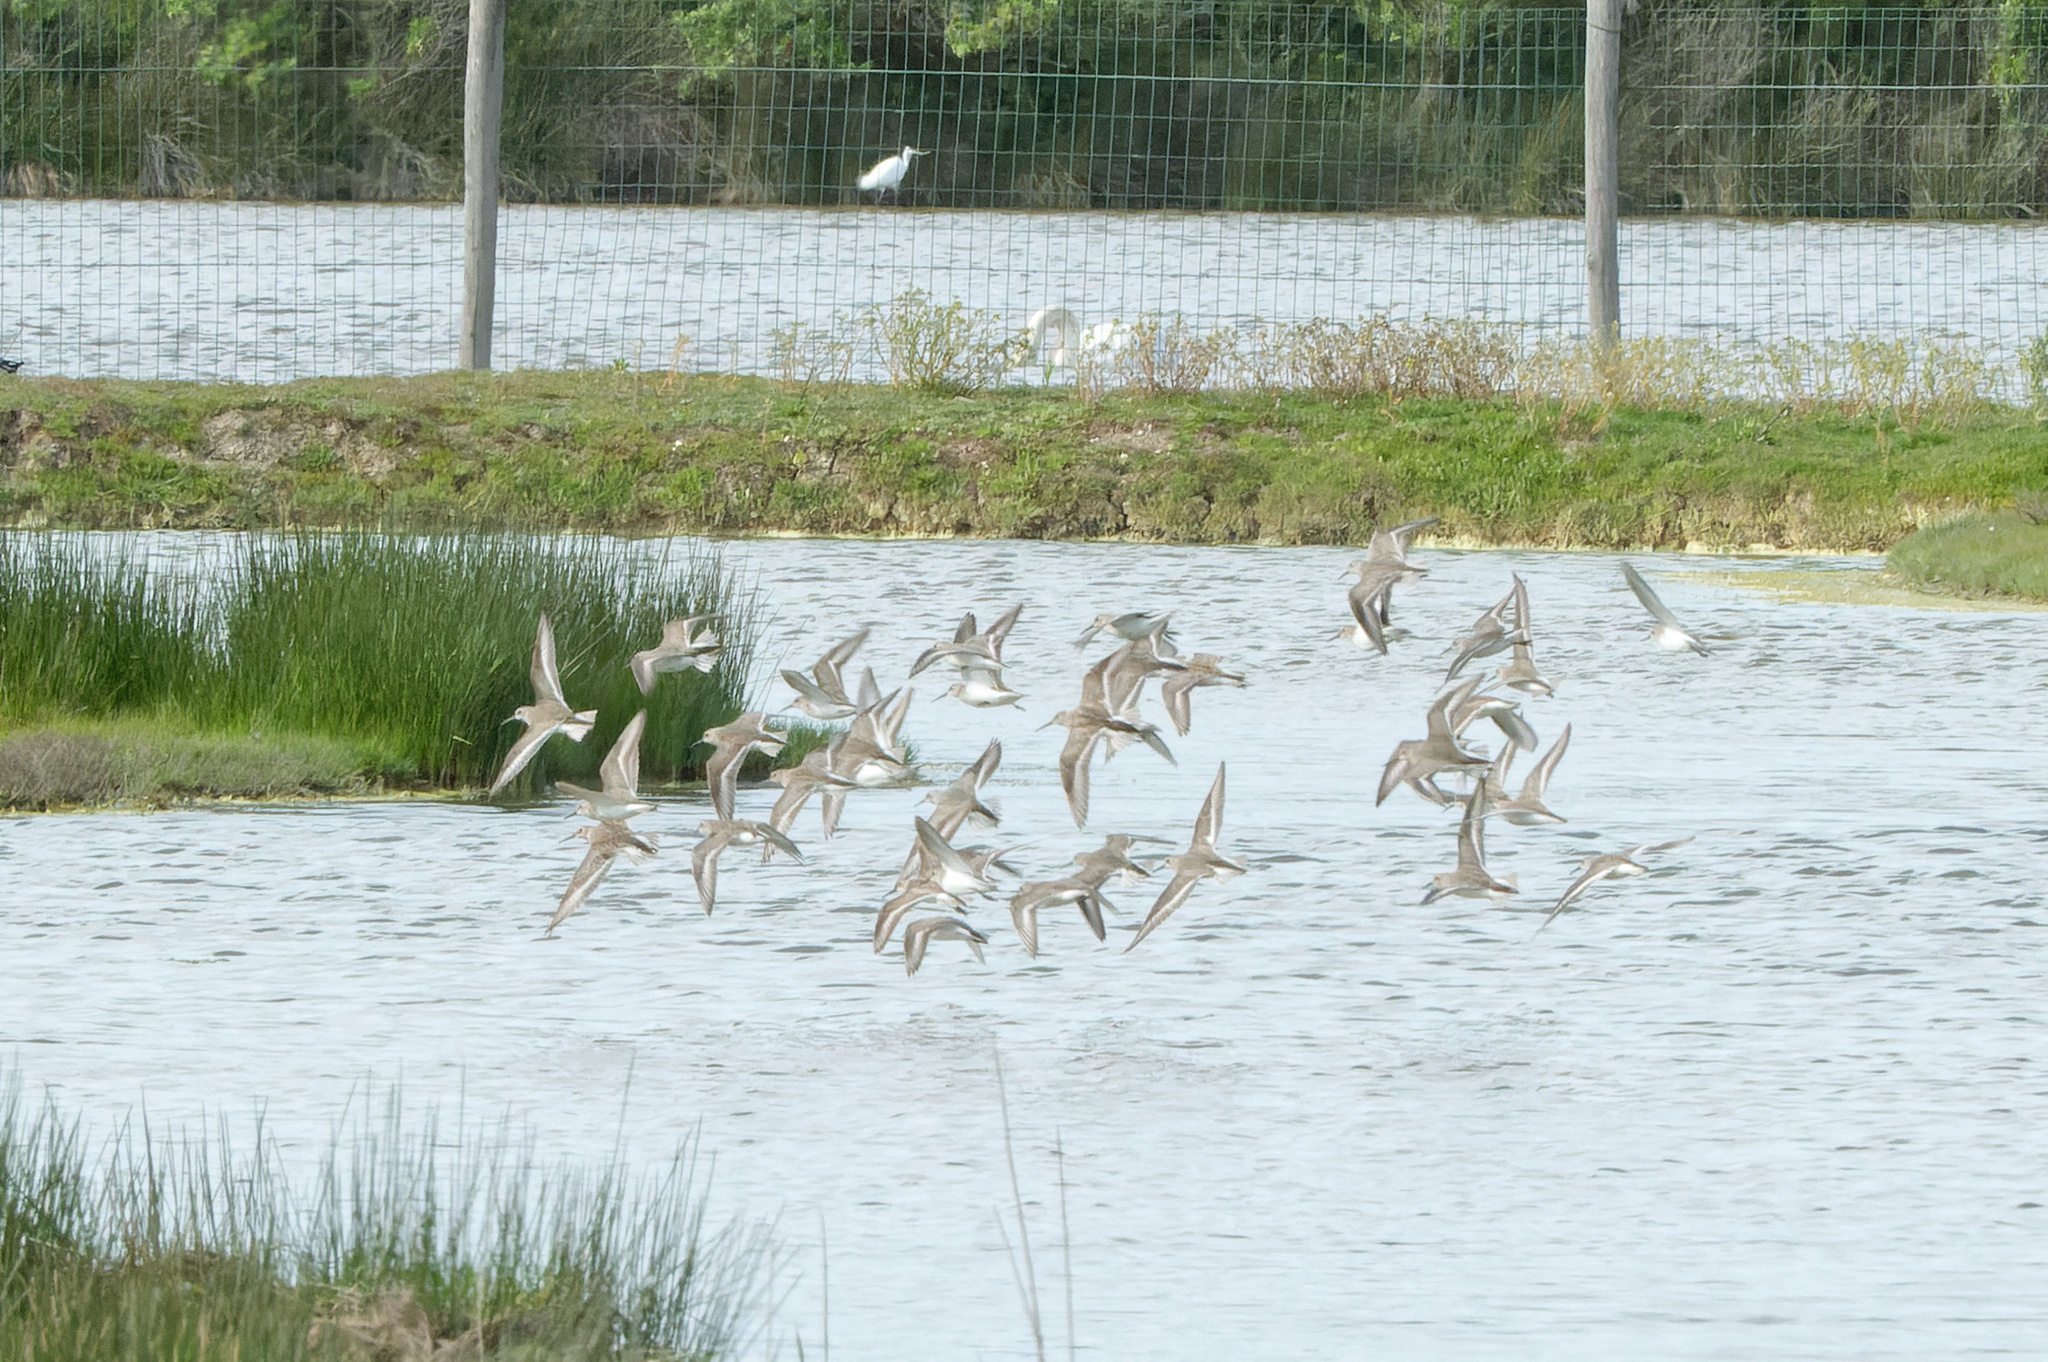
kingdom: Animalia
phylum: Chordata
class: Aves
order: Charadriiformes
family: Scolopacidae
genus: Calidris
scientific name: Calidris alpina
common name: Dunlin
